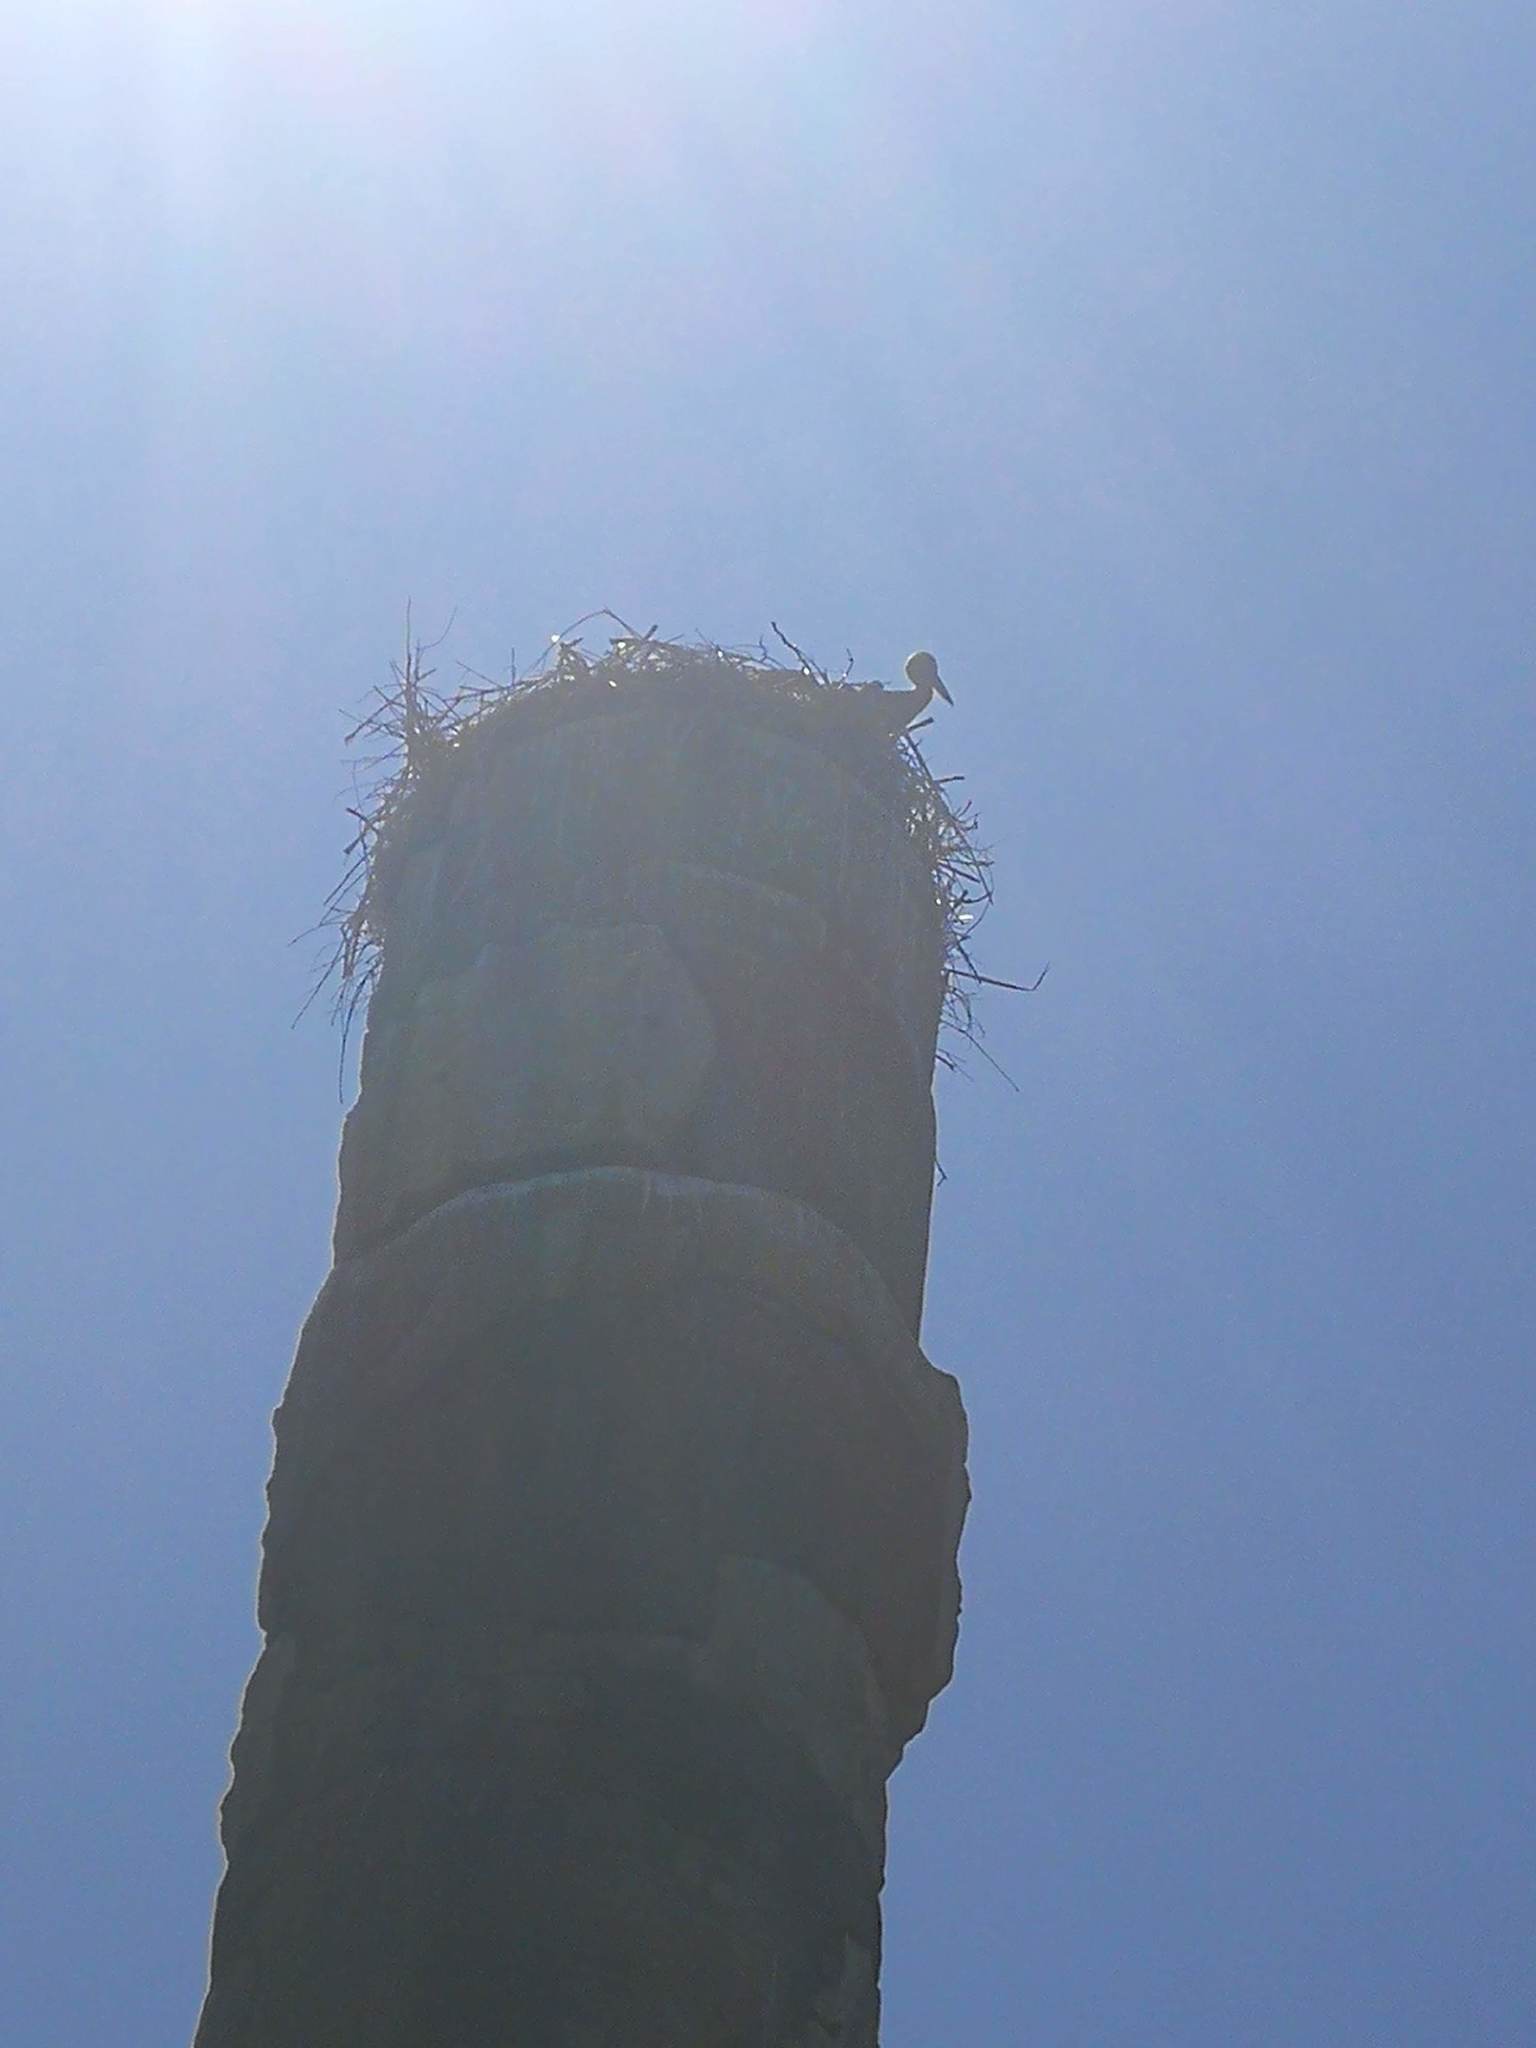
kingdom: Animalia
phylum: Chordata
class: Aves
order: Ciconiiformes
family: Ciconiidae
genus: Ciconia
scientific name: Ciconia ciconia
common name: White stork
